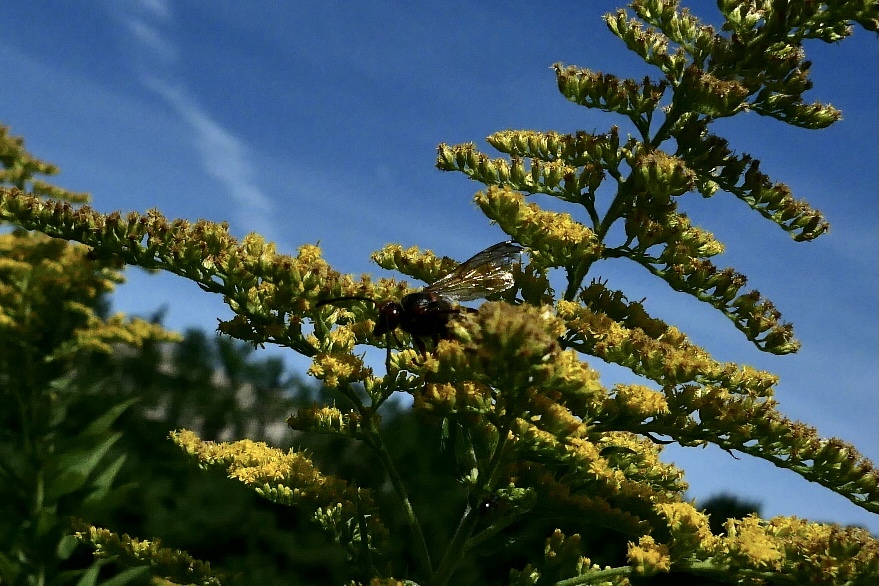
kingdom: Animalia
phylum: Arthropoda
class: Insecta
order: Hymenoptera
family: Crabronidae
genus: Sphecius
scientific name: Sphecius speciosus
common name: Cicada killer
